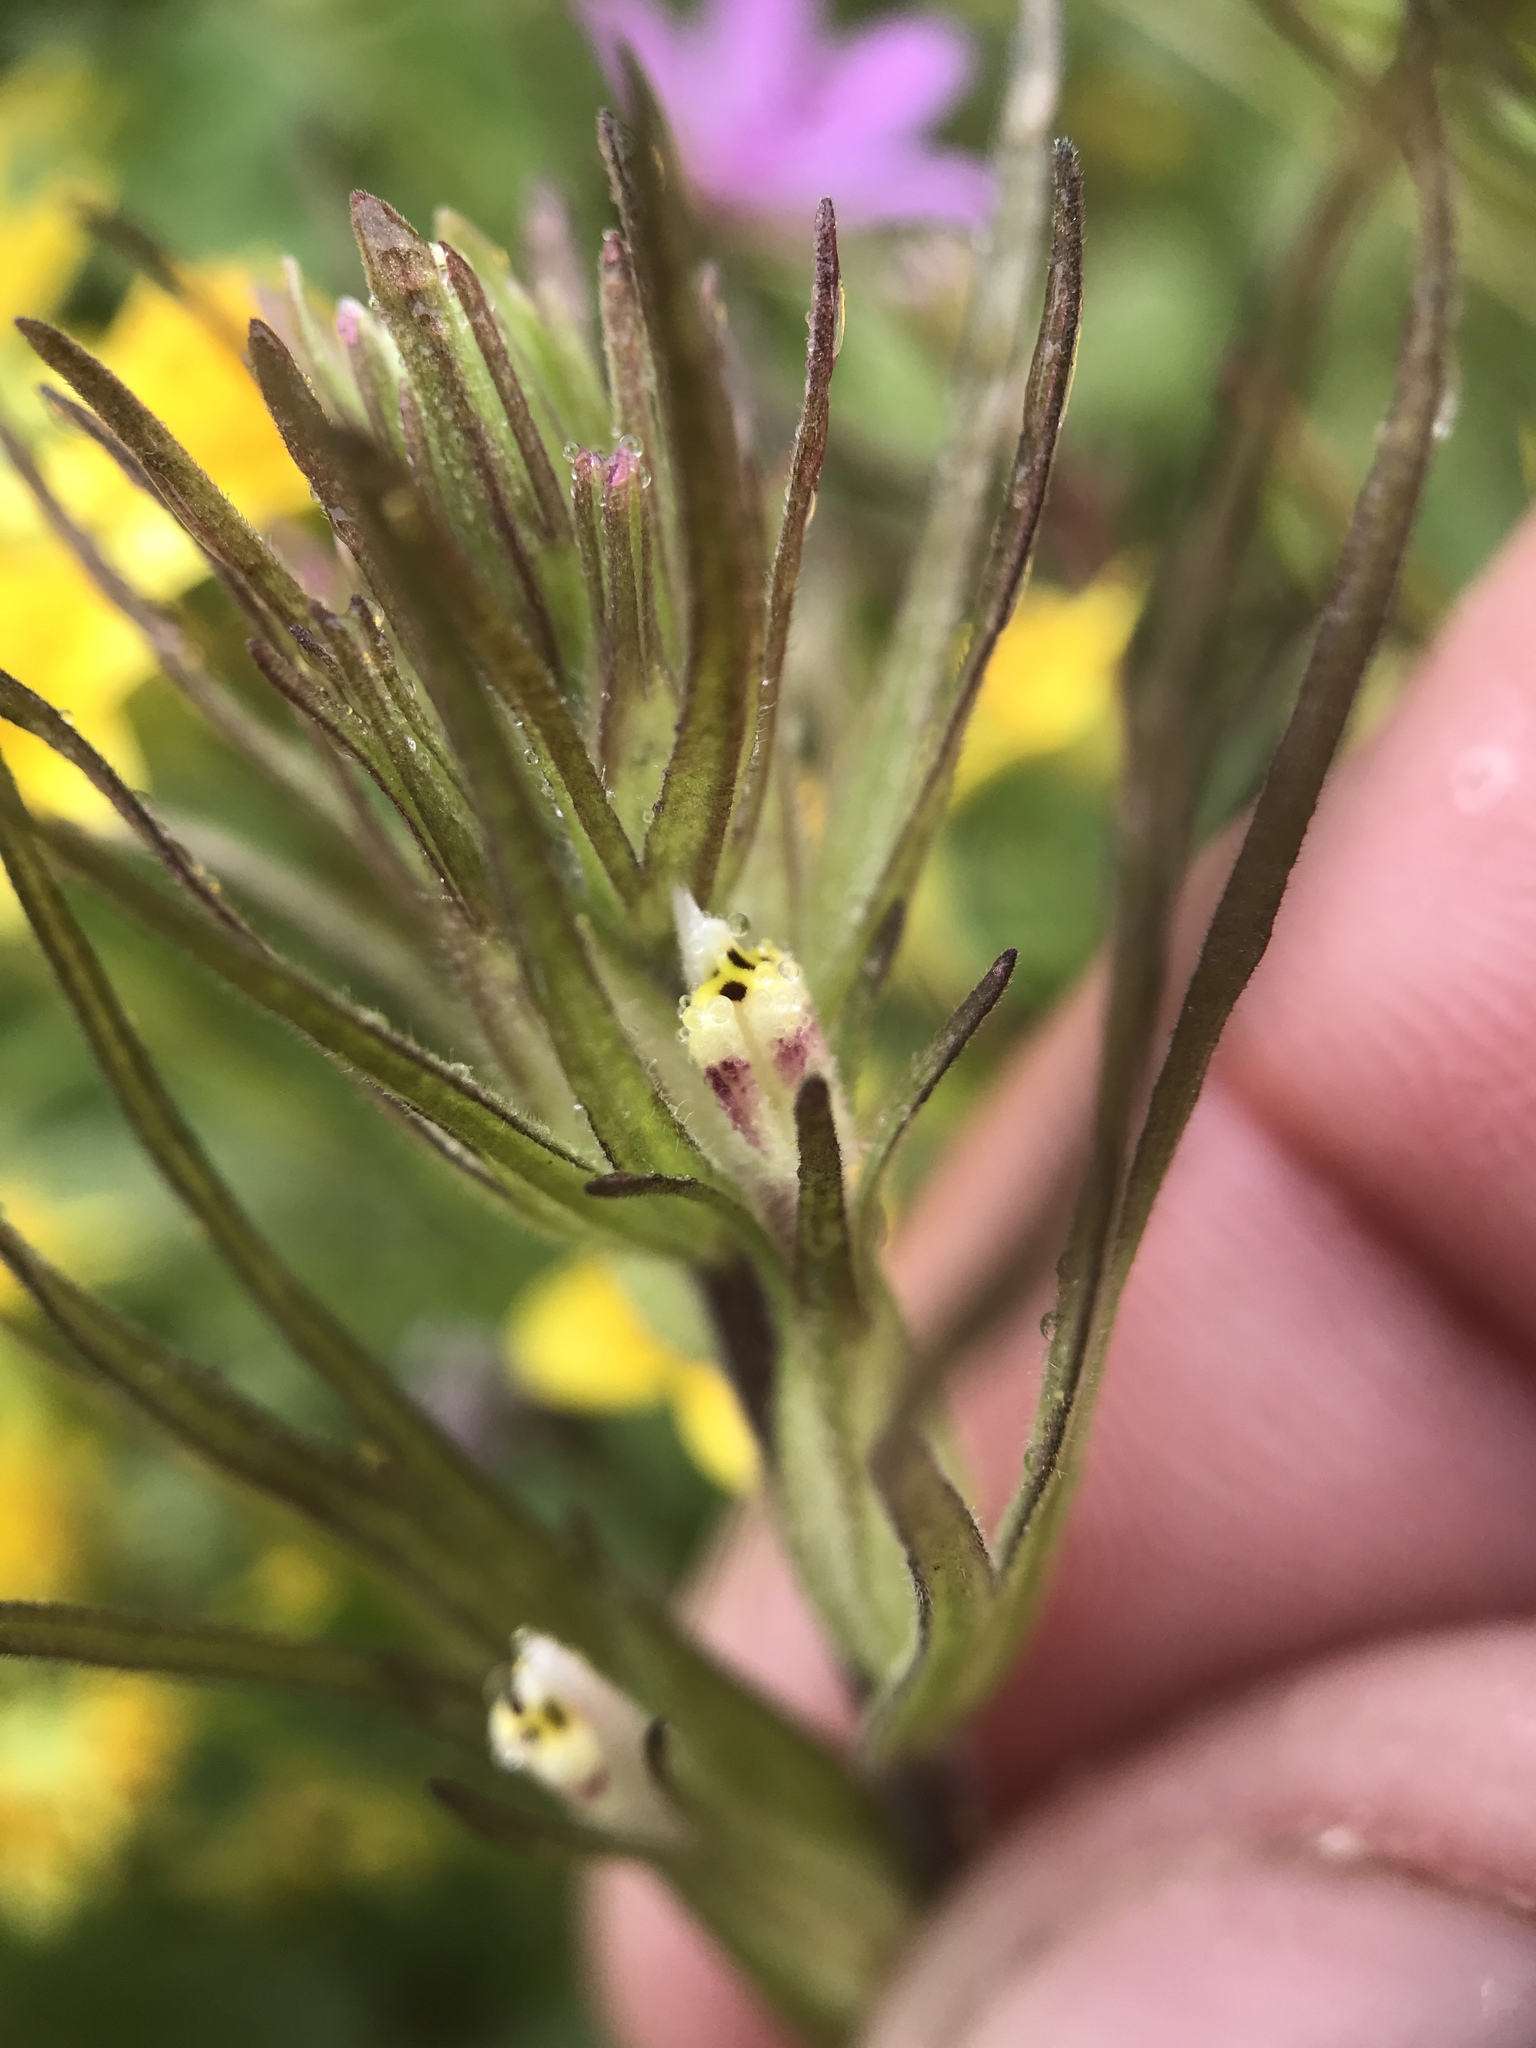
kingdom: Plantae
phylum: Tracheophyta
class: Magnoliopsida
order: Lamiales
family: Orobanchaceae
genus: Castilleja
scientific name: Castilleja attenuata
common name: Valley tassels
